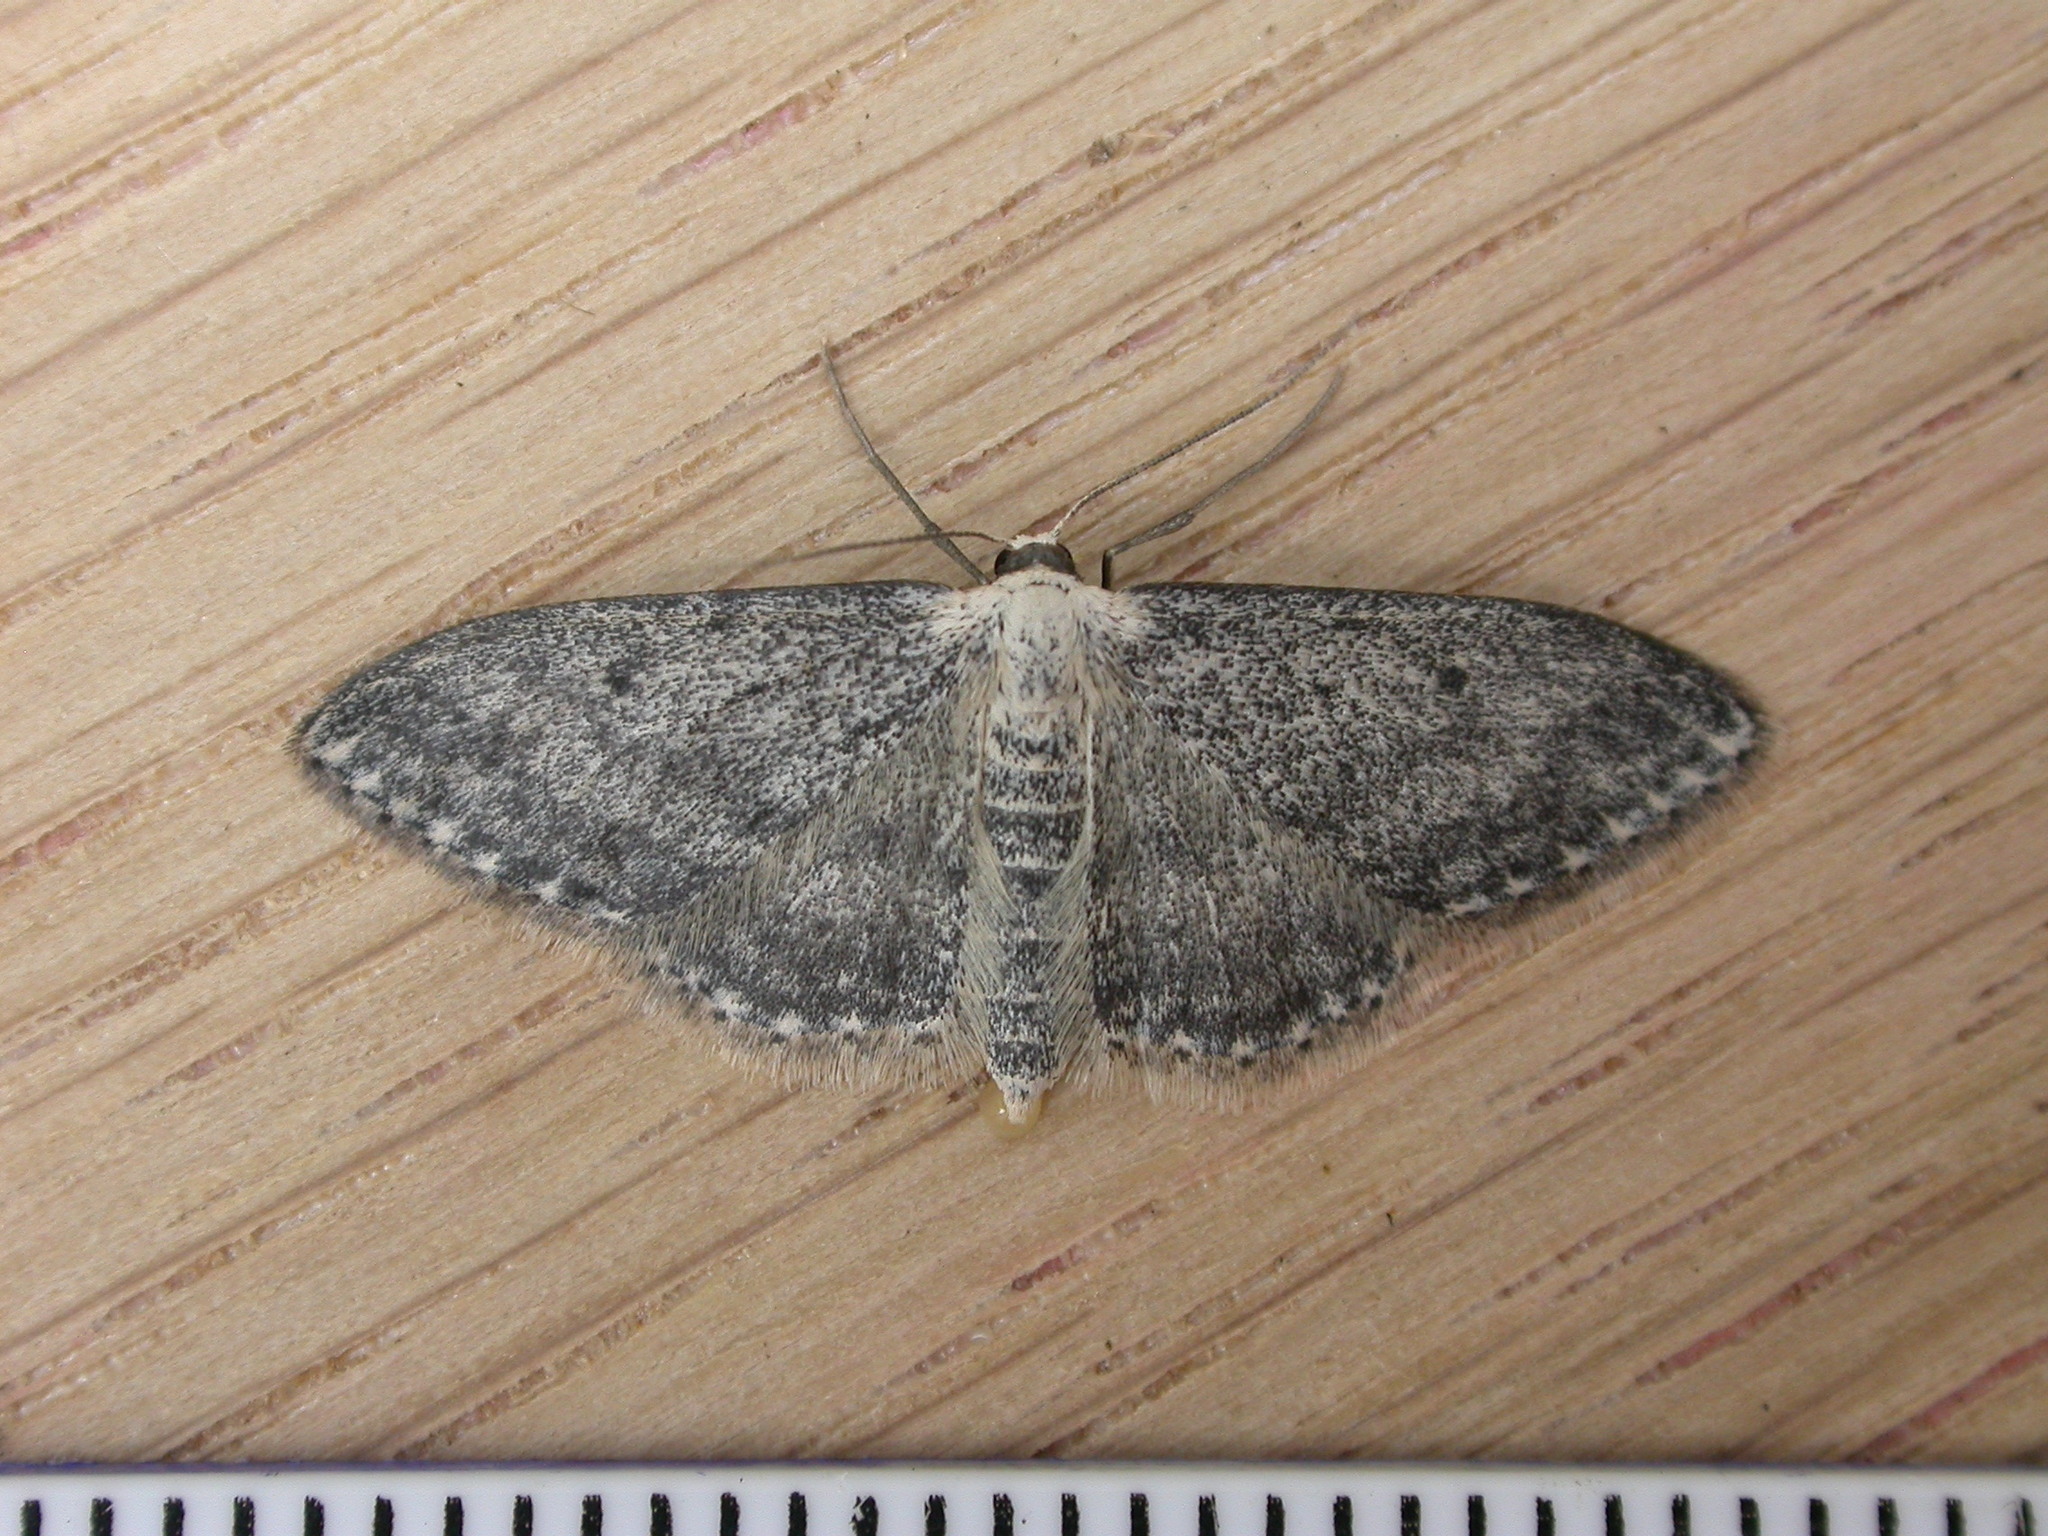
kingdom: Animalia
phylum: Arthropoda
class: Insecta
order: Lepidoptera
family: Geometridae
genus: Idaea
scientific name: Idaea seriata
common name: Small dusty wave
